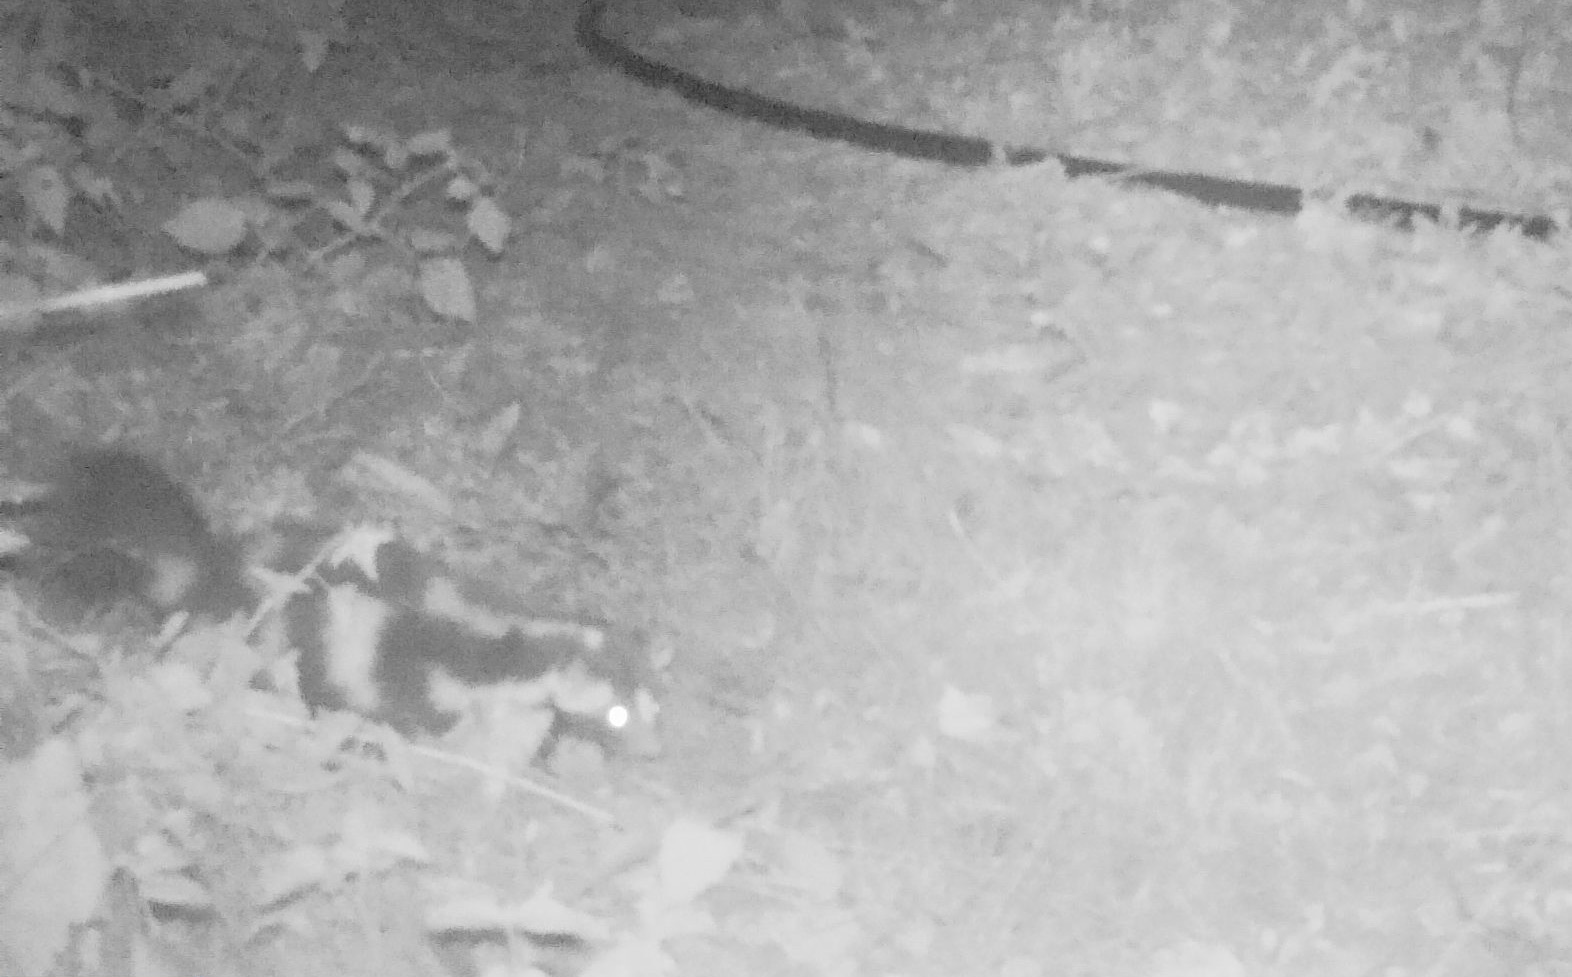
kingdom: Animalia
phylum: Chordata
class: Mammalia
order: Carnivora
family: Mephitidae
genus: Spilogale
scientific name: Spilogale gracilis
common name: Western spotted skunk
